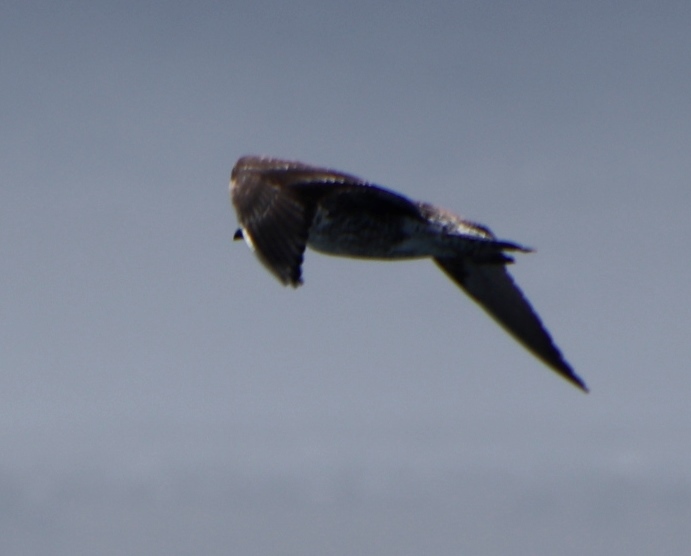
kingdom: Animalia
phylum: Chordata
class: Aves
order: Charadriiformes
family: Laridae
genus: Larus
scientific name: Larus dominicanus
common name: Kelp gull
